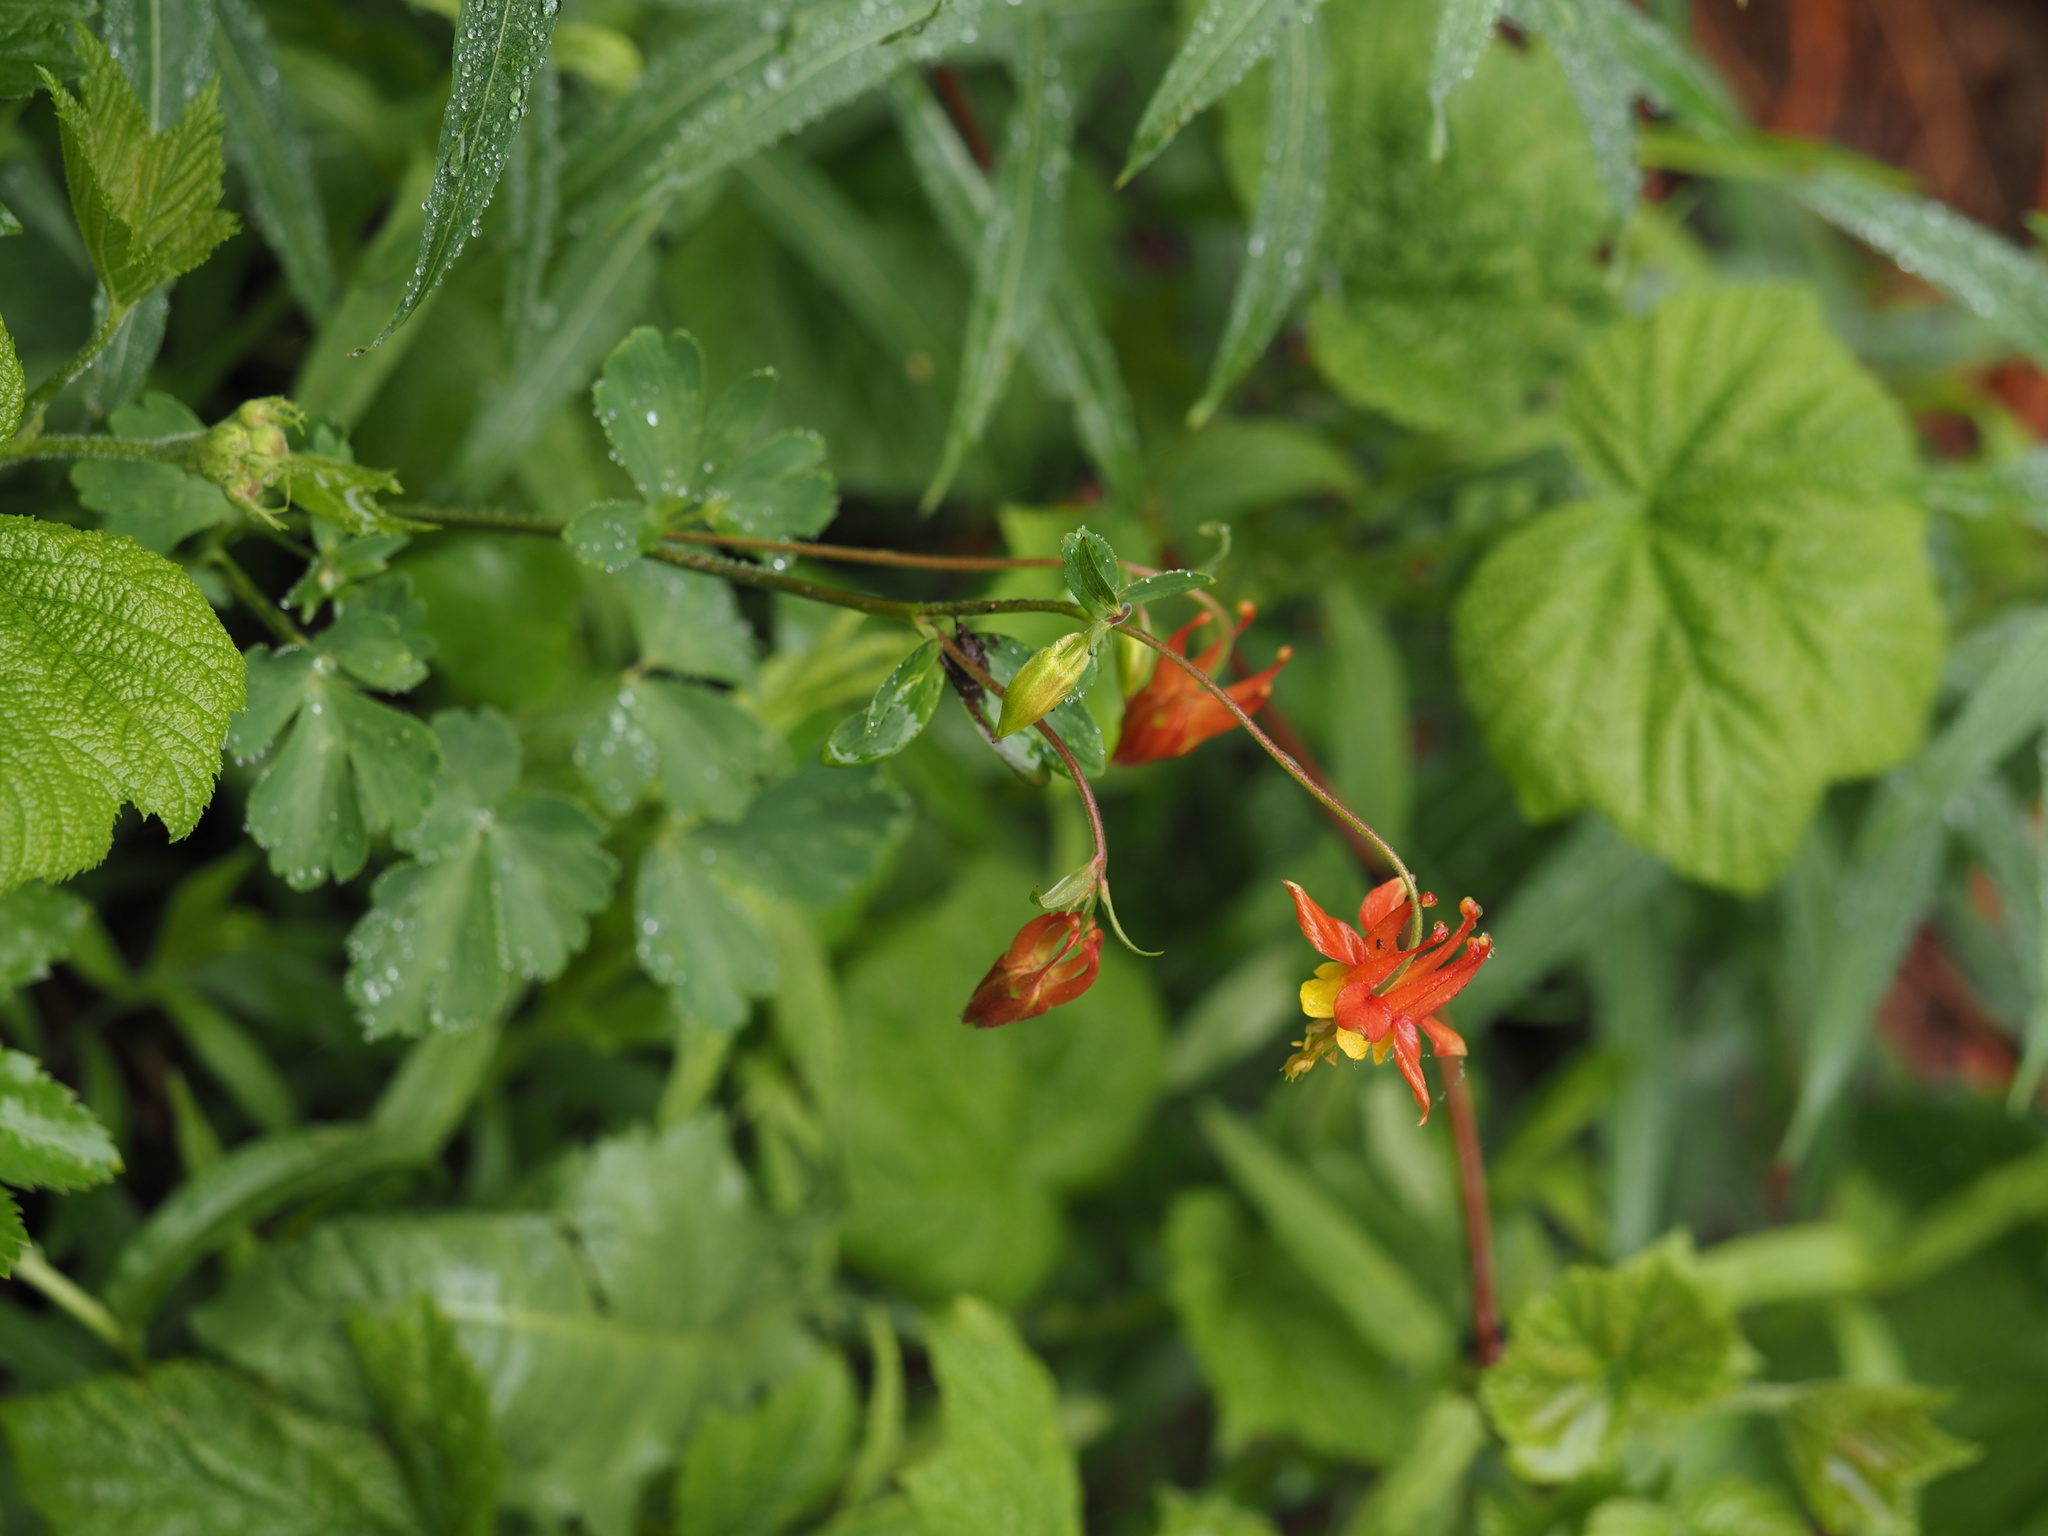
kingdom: Plantae
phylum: Tracheophyta
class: Magnoliopsida
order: Ranunculales
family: Ranunculaceae
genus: Aquilegia
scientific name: Aquilegia formosa
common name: Sitka columbine
